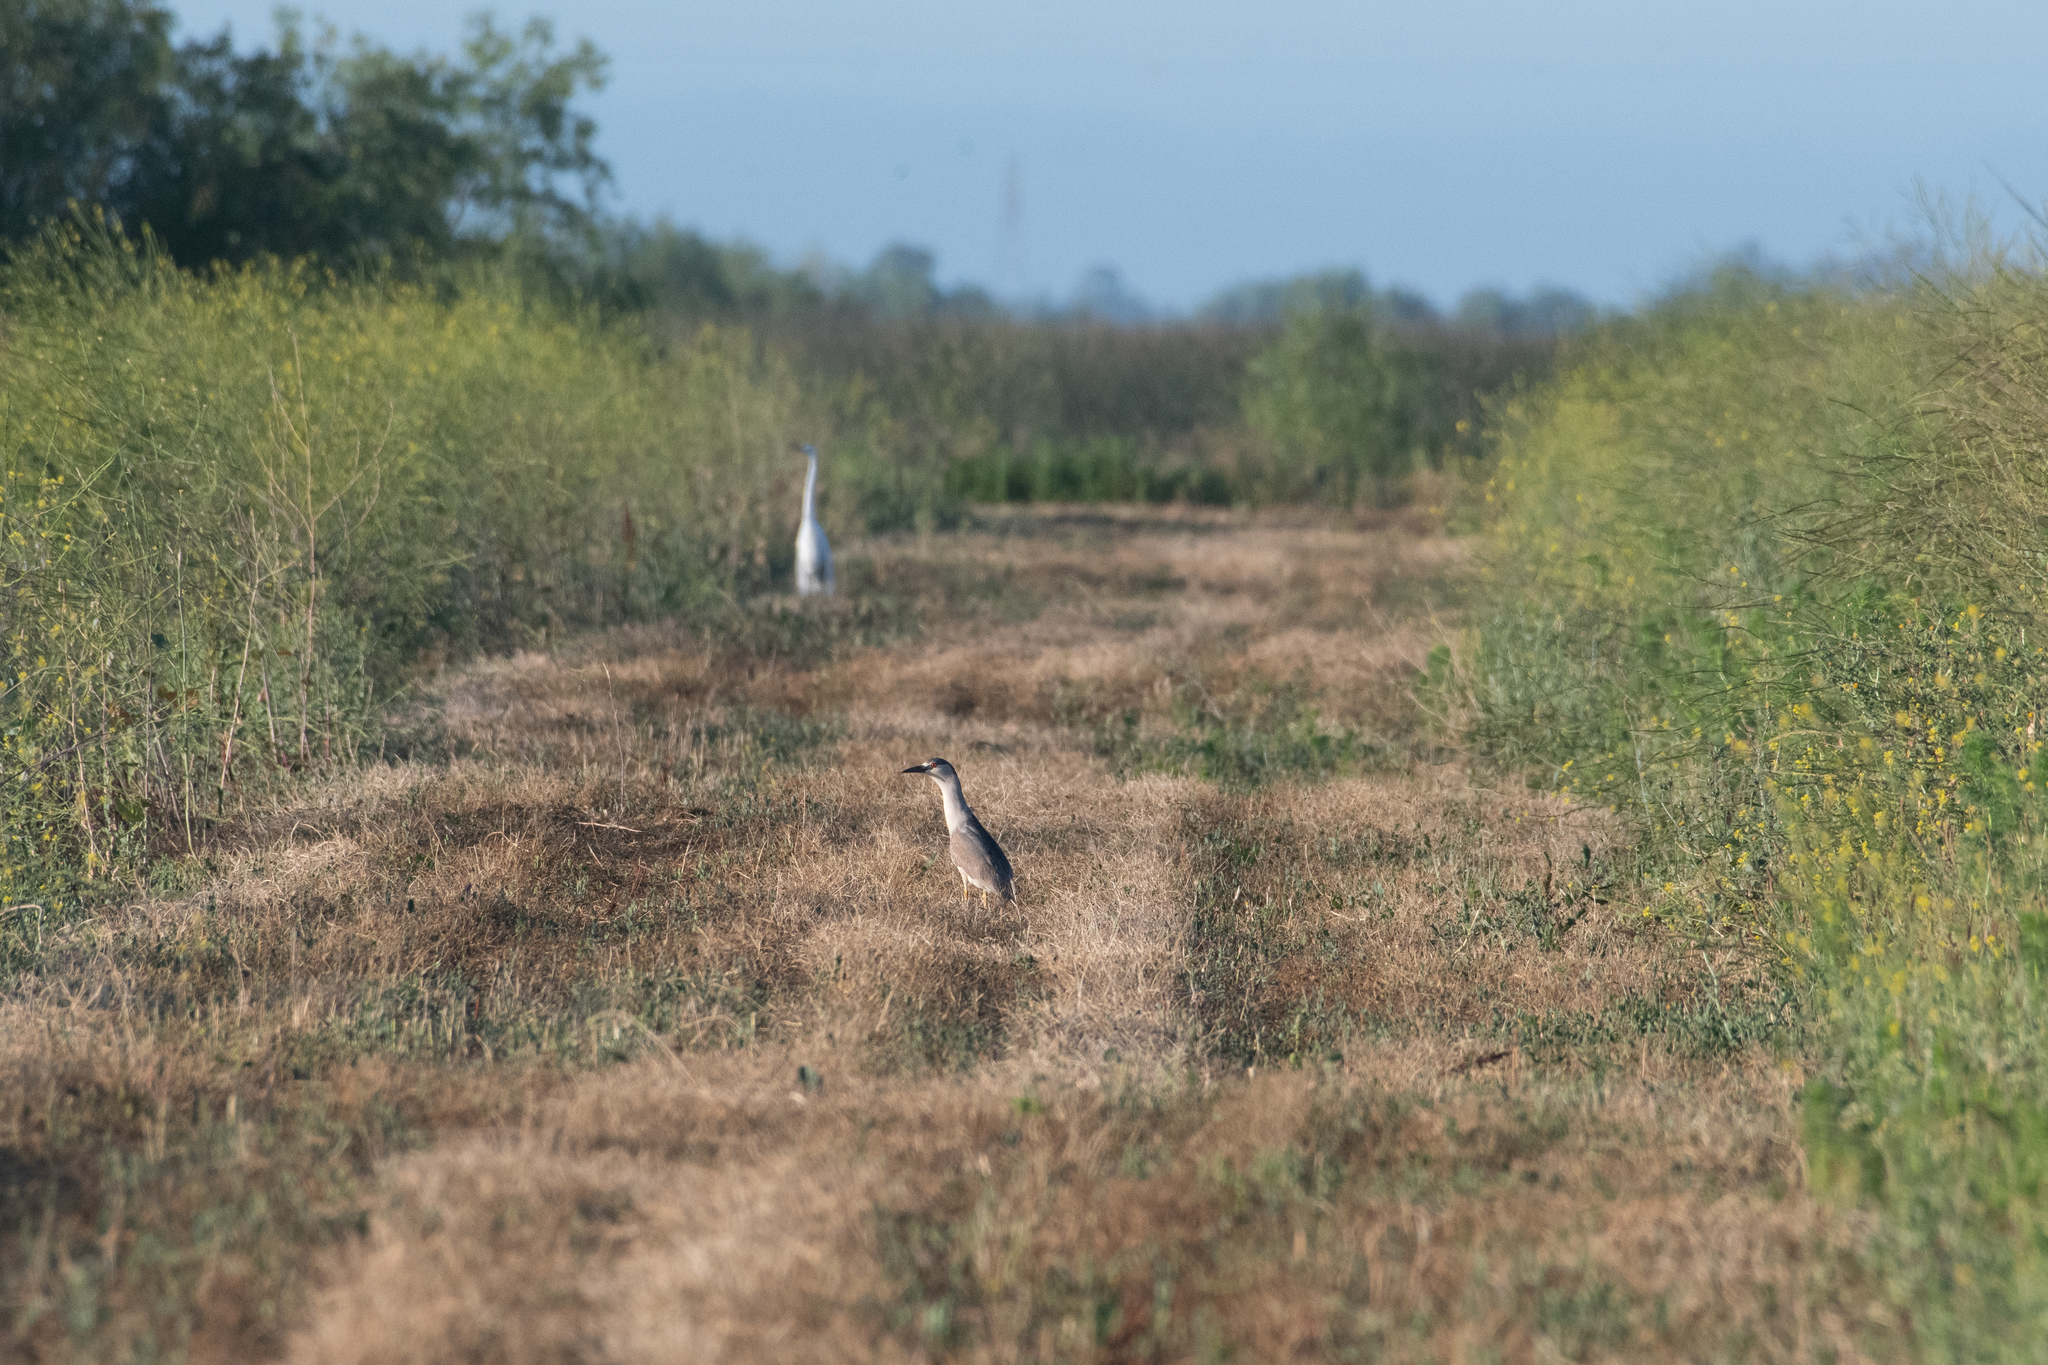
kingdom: Animalia
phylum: Chordata
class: Aves
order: Pelecaniformes
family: Ardeidae
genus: Nycticorax
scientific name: Nycticorax nycticorax
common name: Black-crowned night heron
